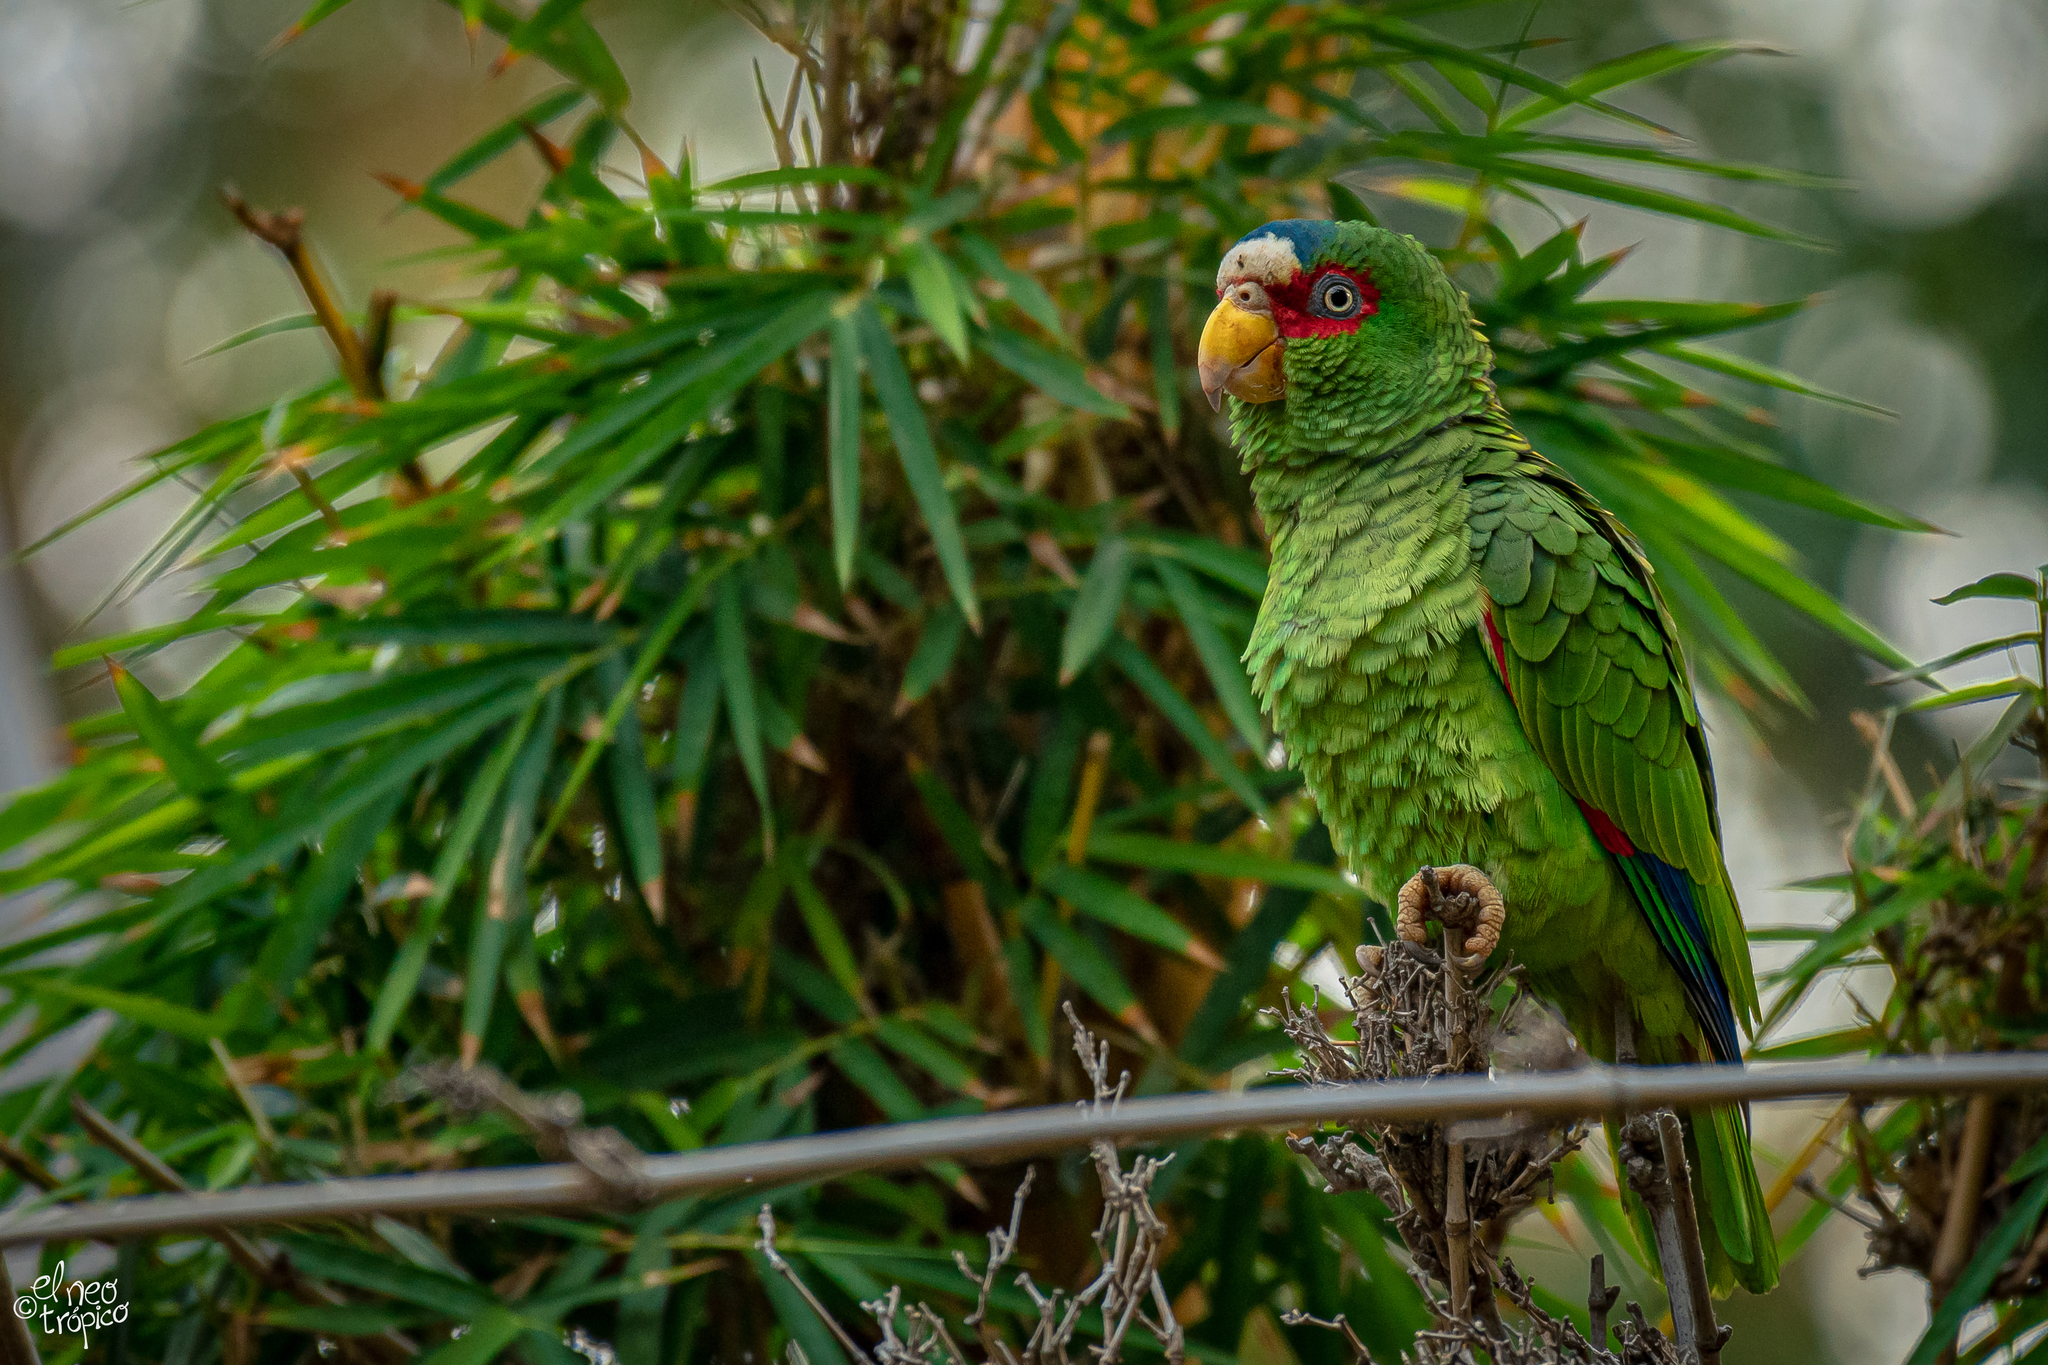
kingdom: Animalia
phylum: Chordata
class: Aves
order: Psittaciformes
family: Psittacidae
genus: Amazona
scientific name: Amazona albifrons
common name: White-fronted amazon
